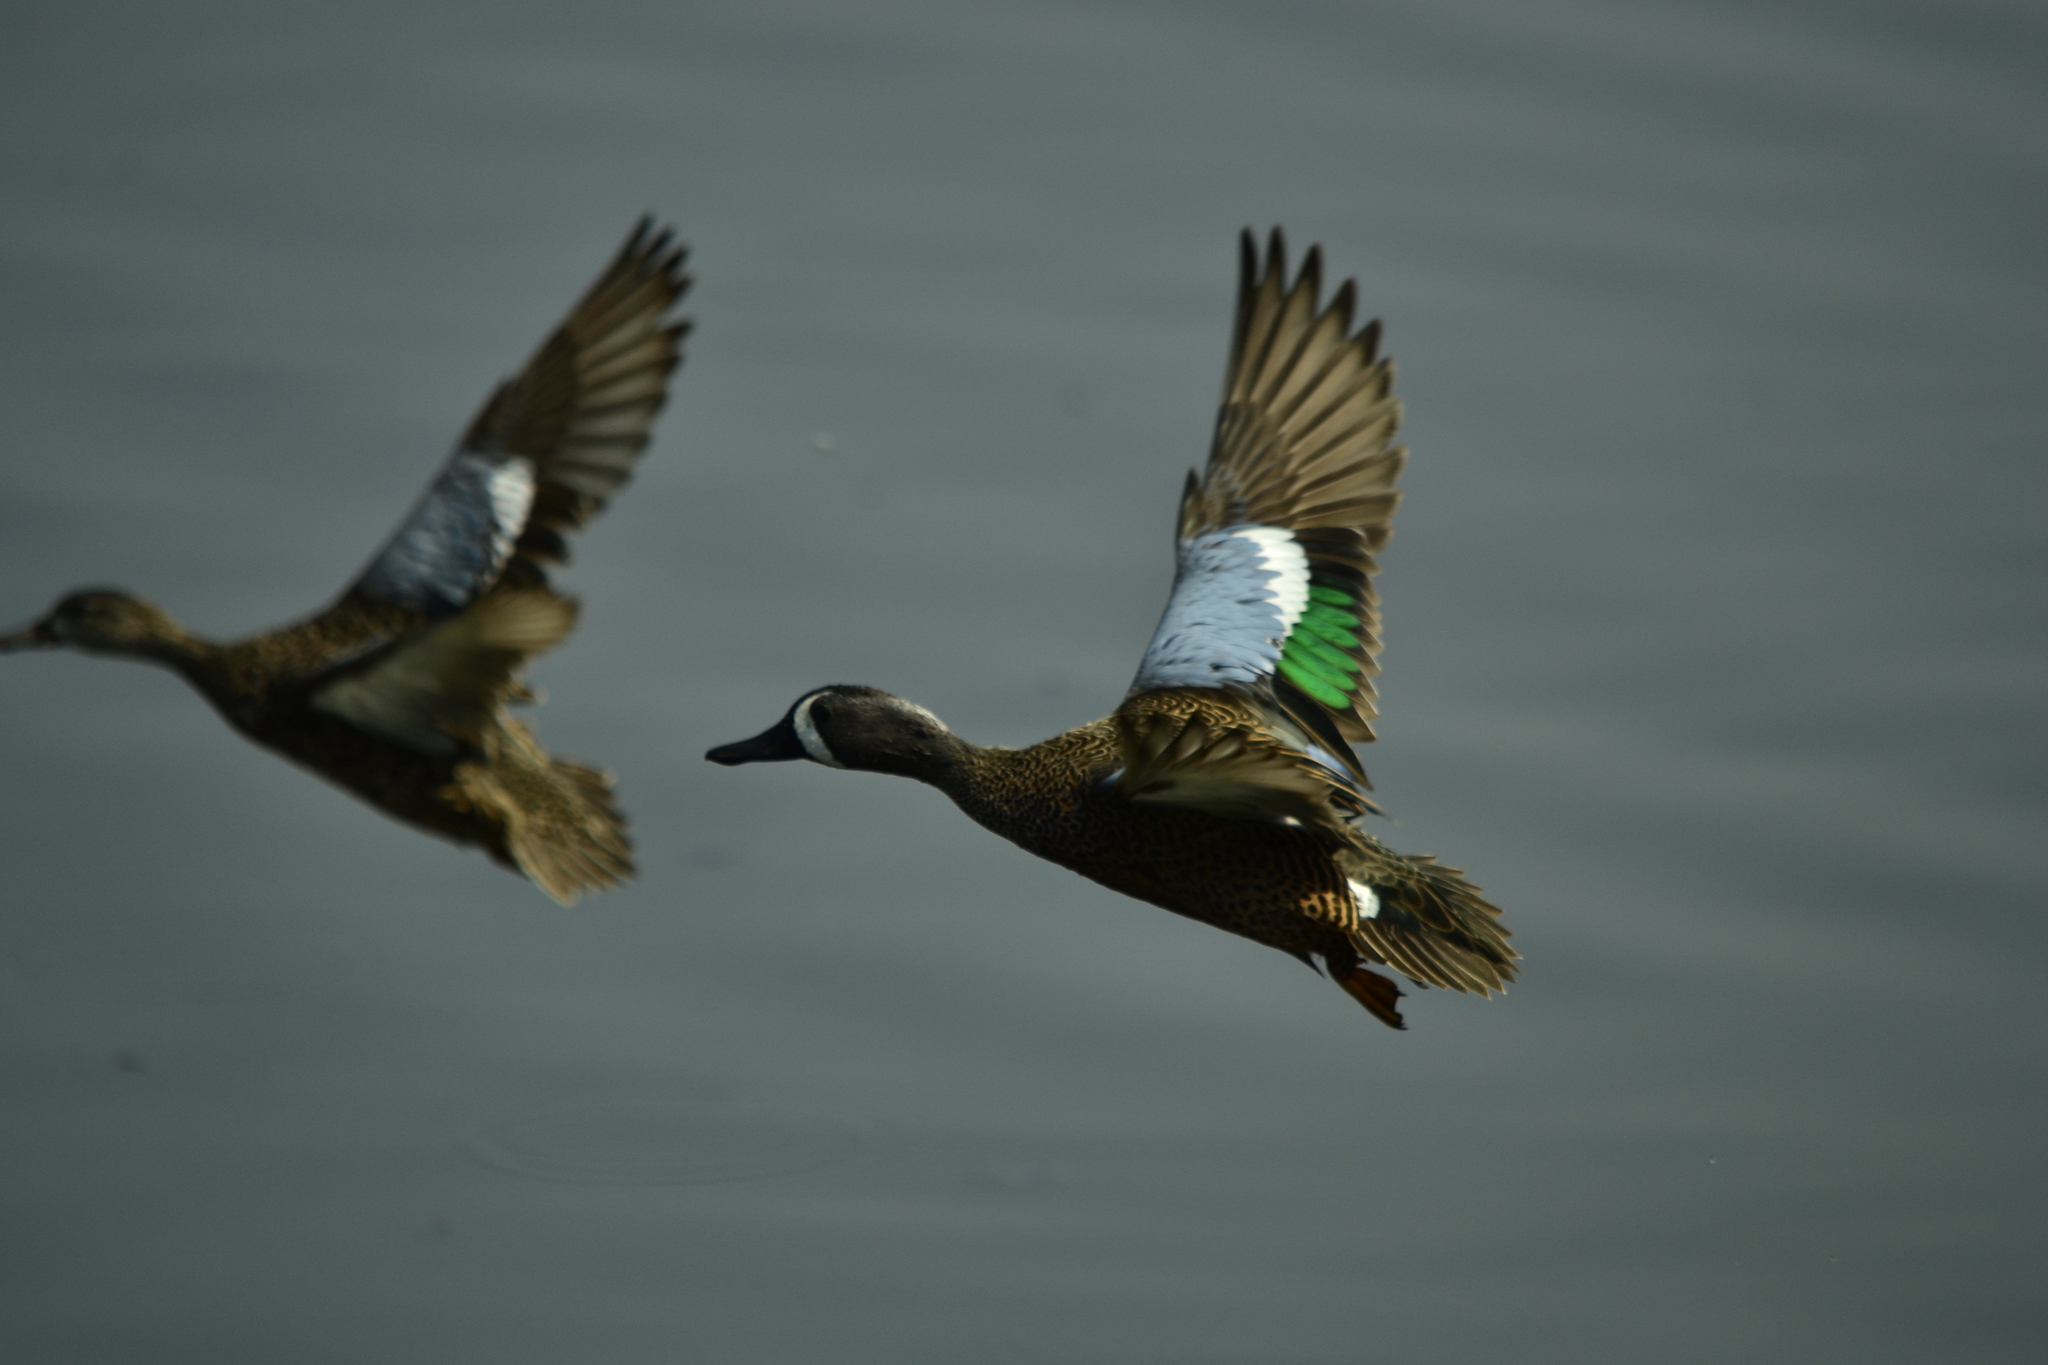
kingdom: Animalia
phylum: Chordata
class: Aves
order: Anseriformes
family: Anatidae
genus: Spatula
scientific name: Spatula discors
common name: Blue-winged teal
